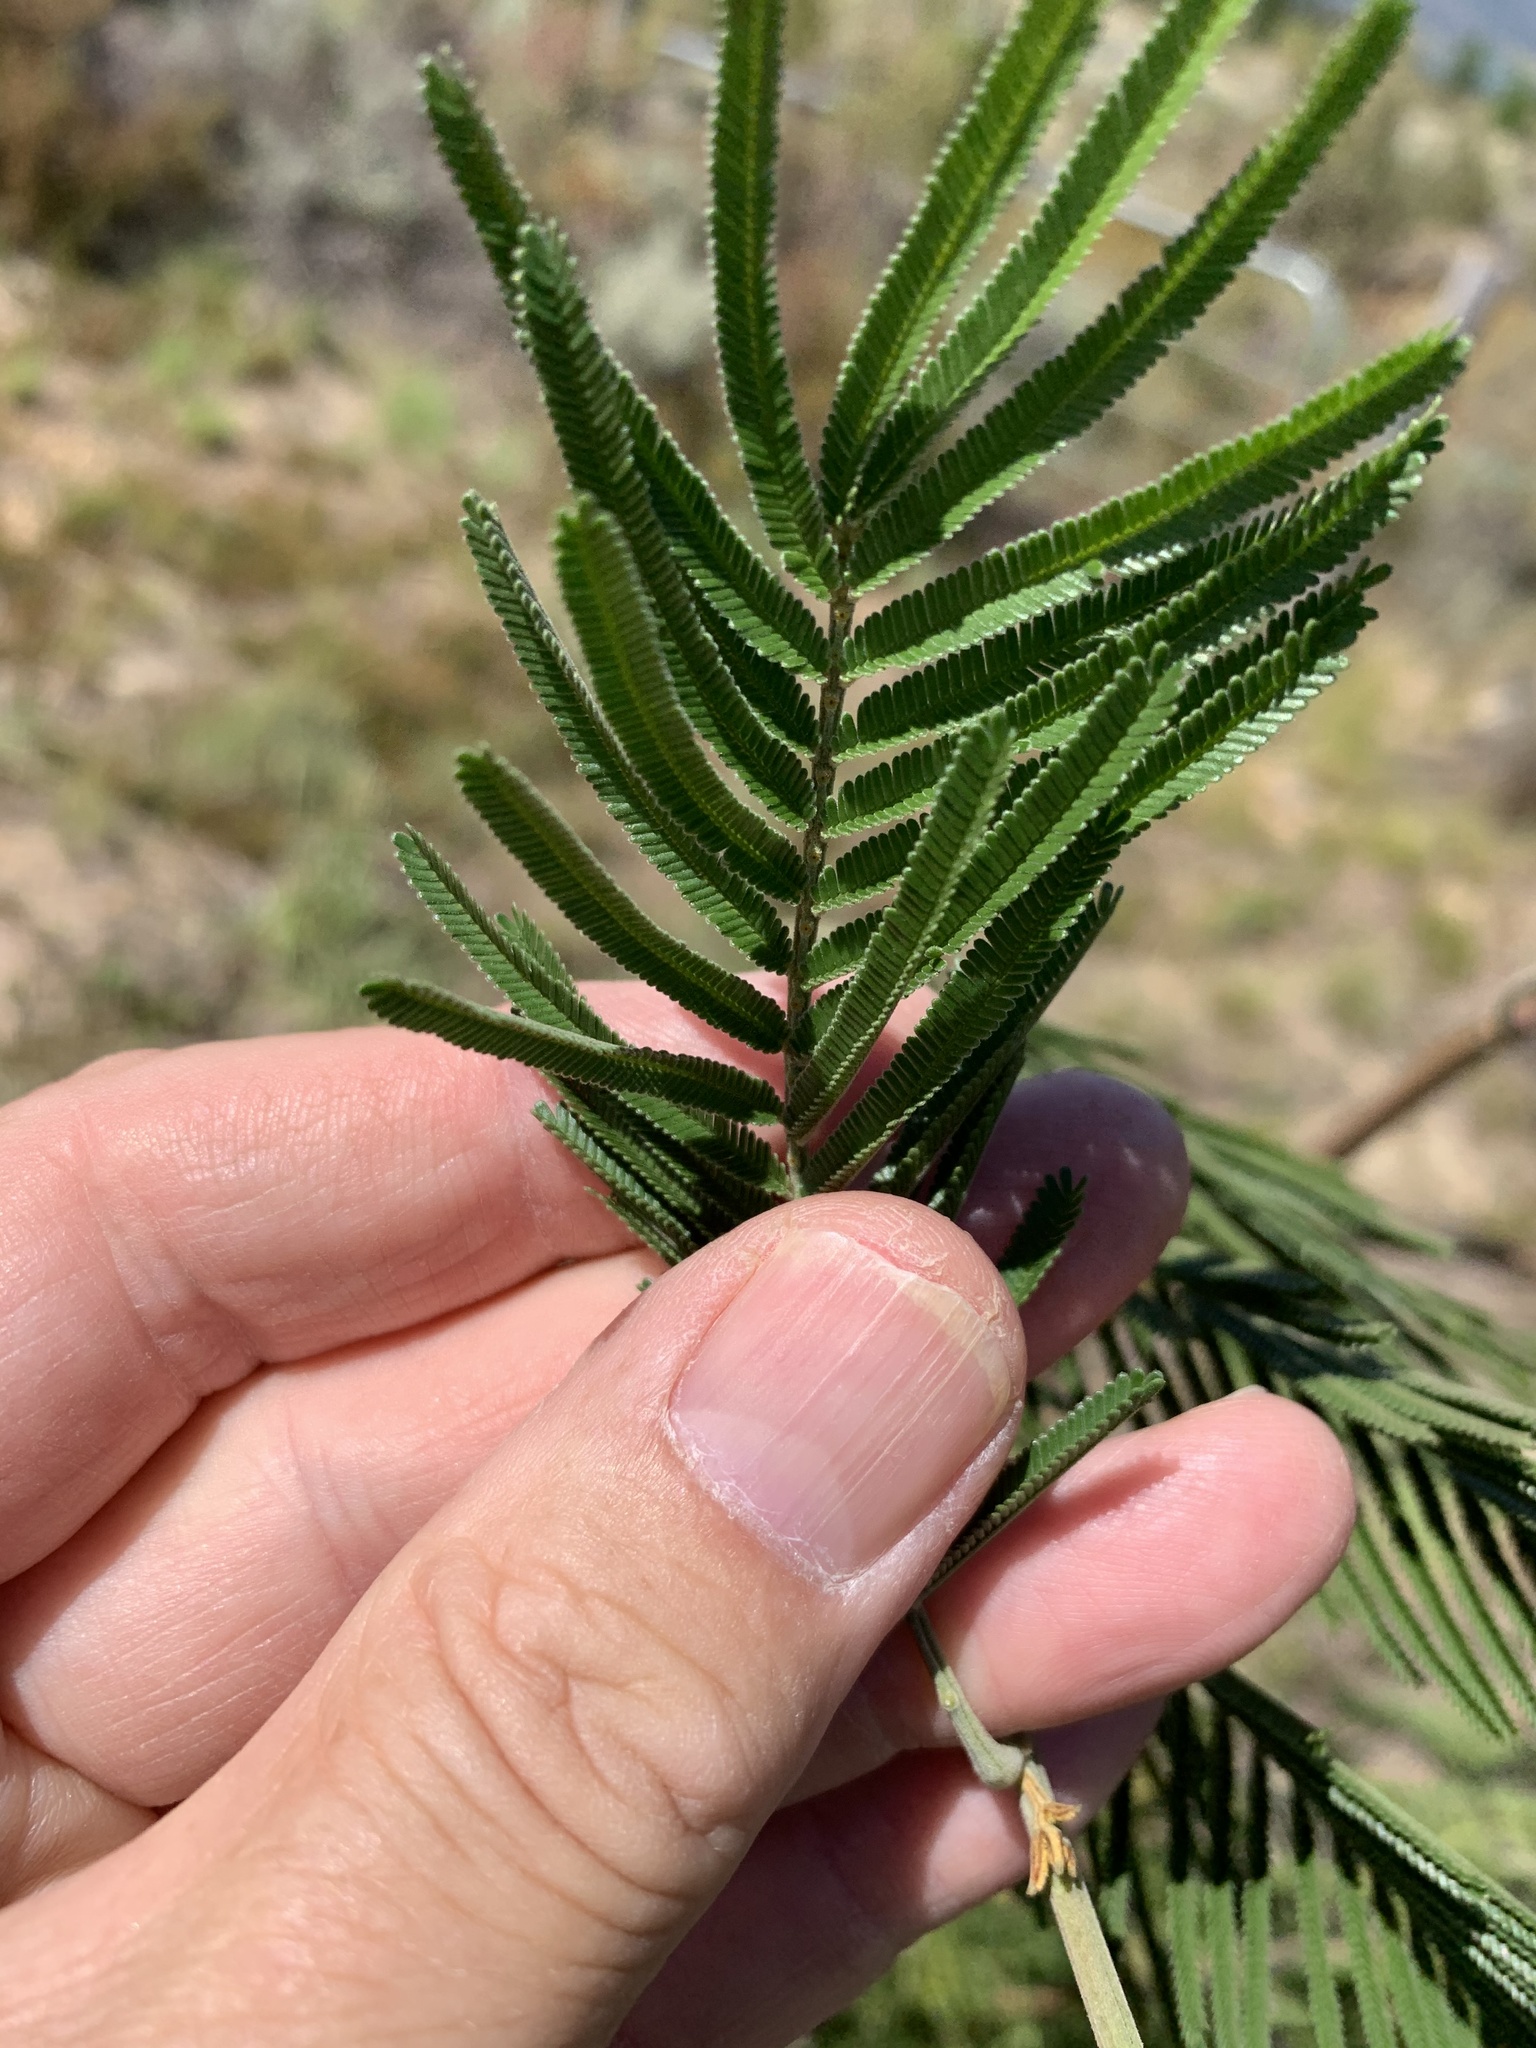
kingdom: Plantae
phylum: Tracheophyta
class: Magnoliopsida
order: Fabales
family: Fabaceae
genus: Acacia
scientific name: Acacia mearnsii
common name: Black wattle
